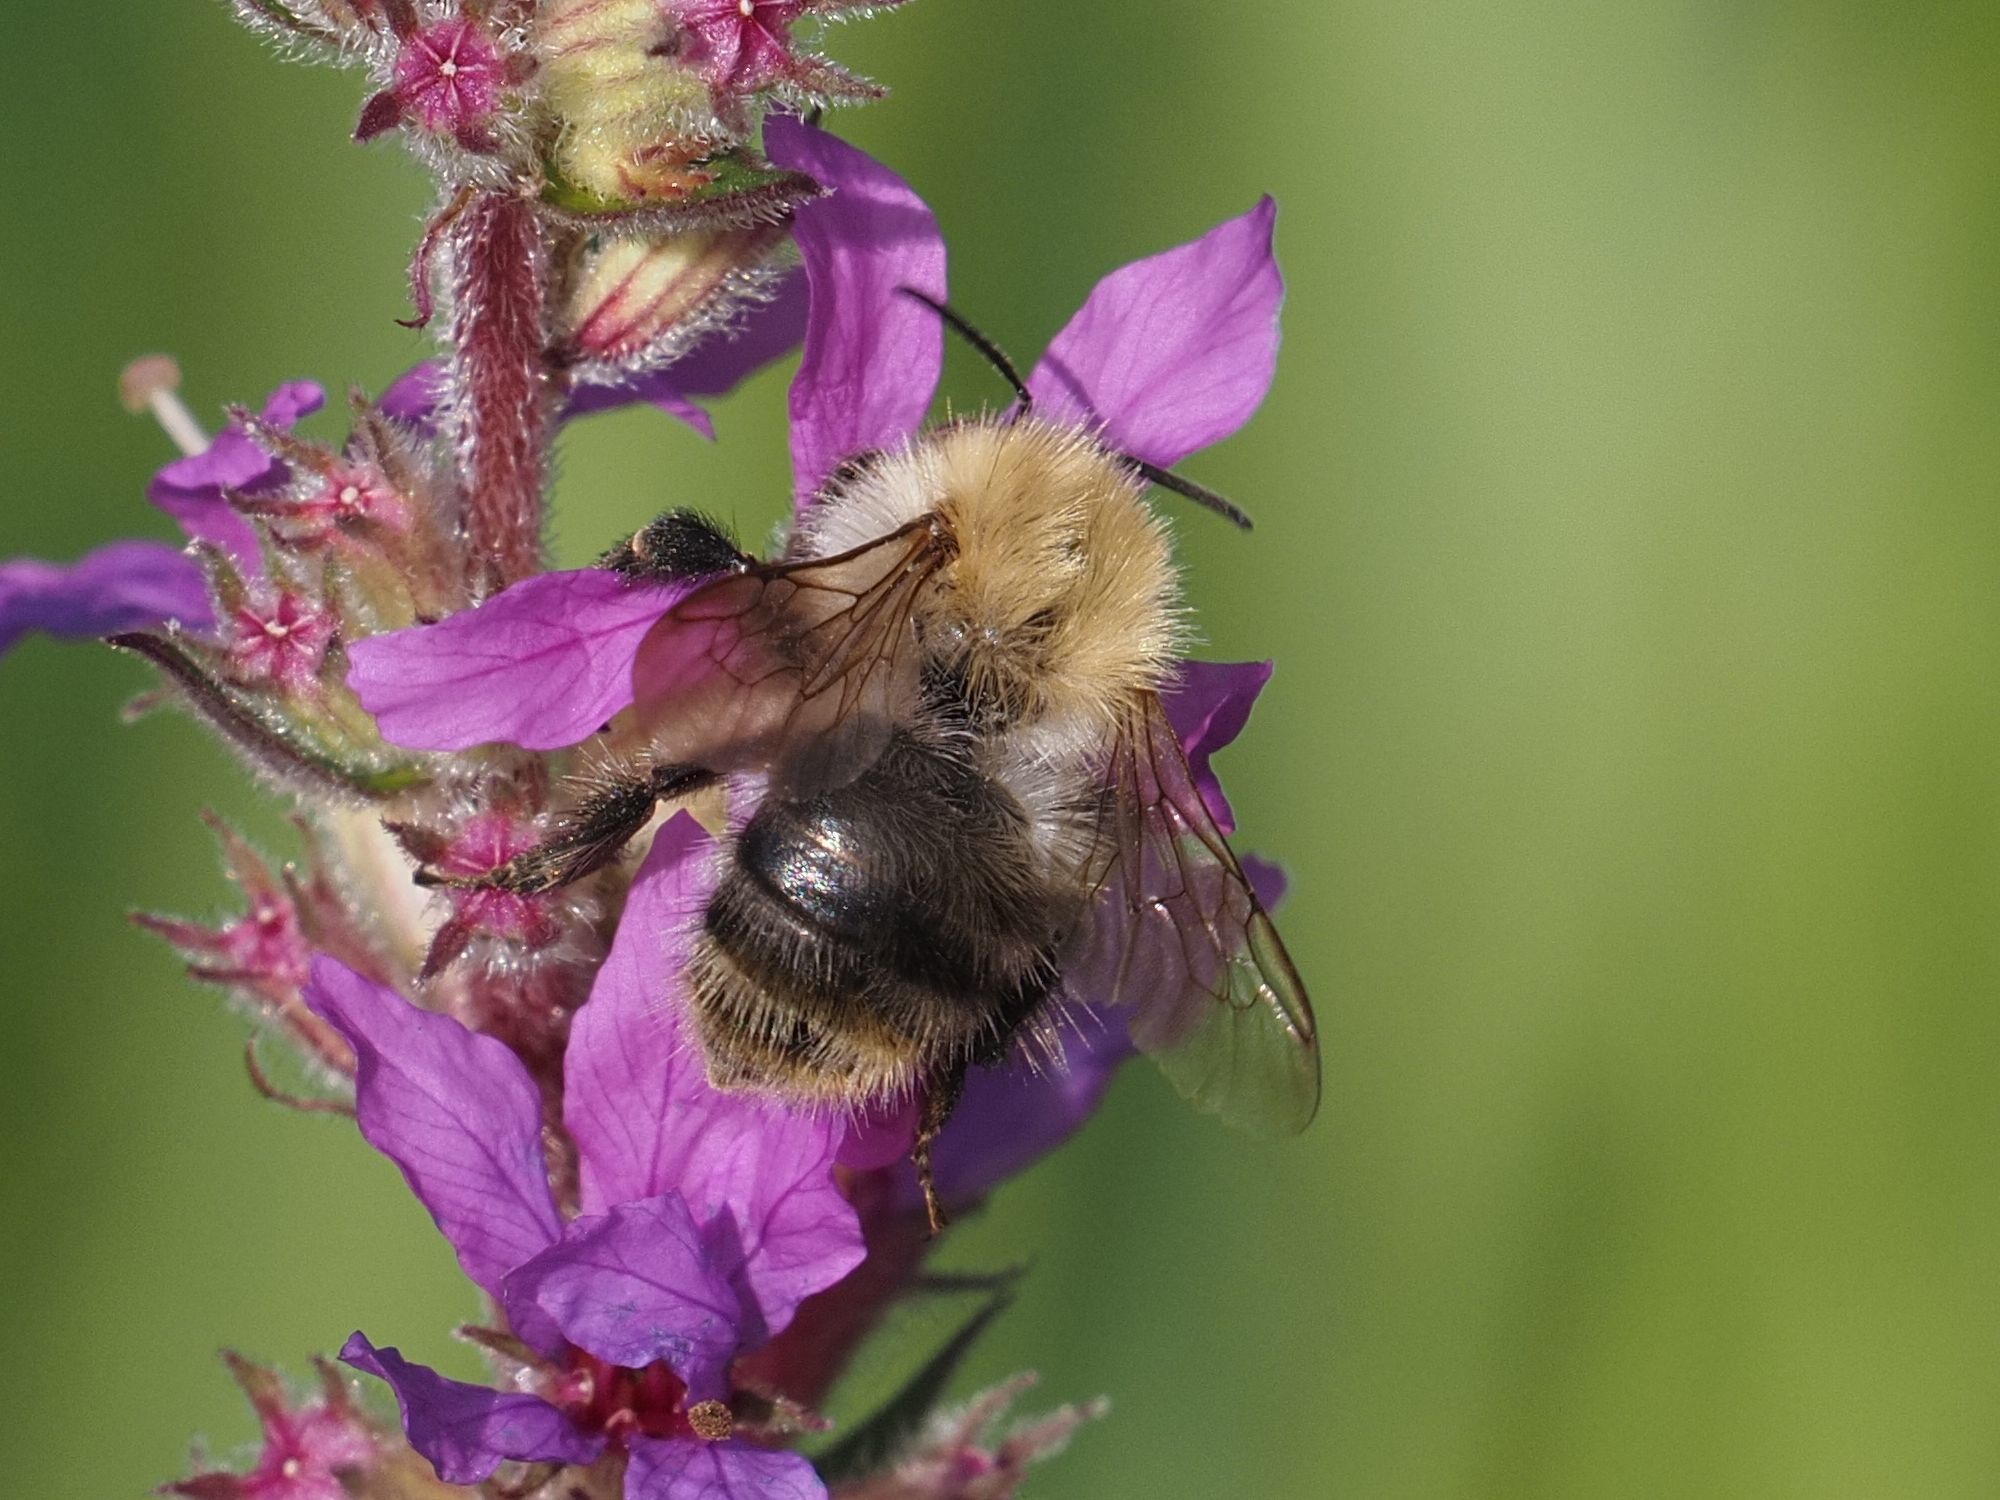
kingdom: Animalia
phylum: Arthropoda
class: Insecta
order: Hymenoptera
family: Apidae
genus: Bombus
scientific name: Bombus pascuorum
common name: Common carder bee
